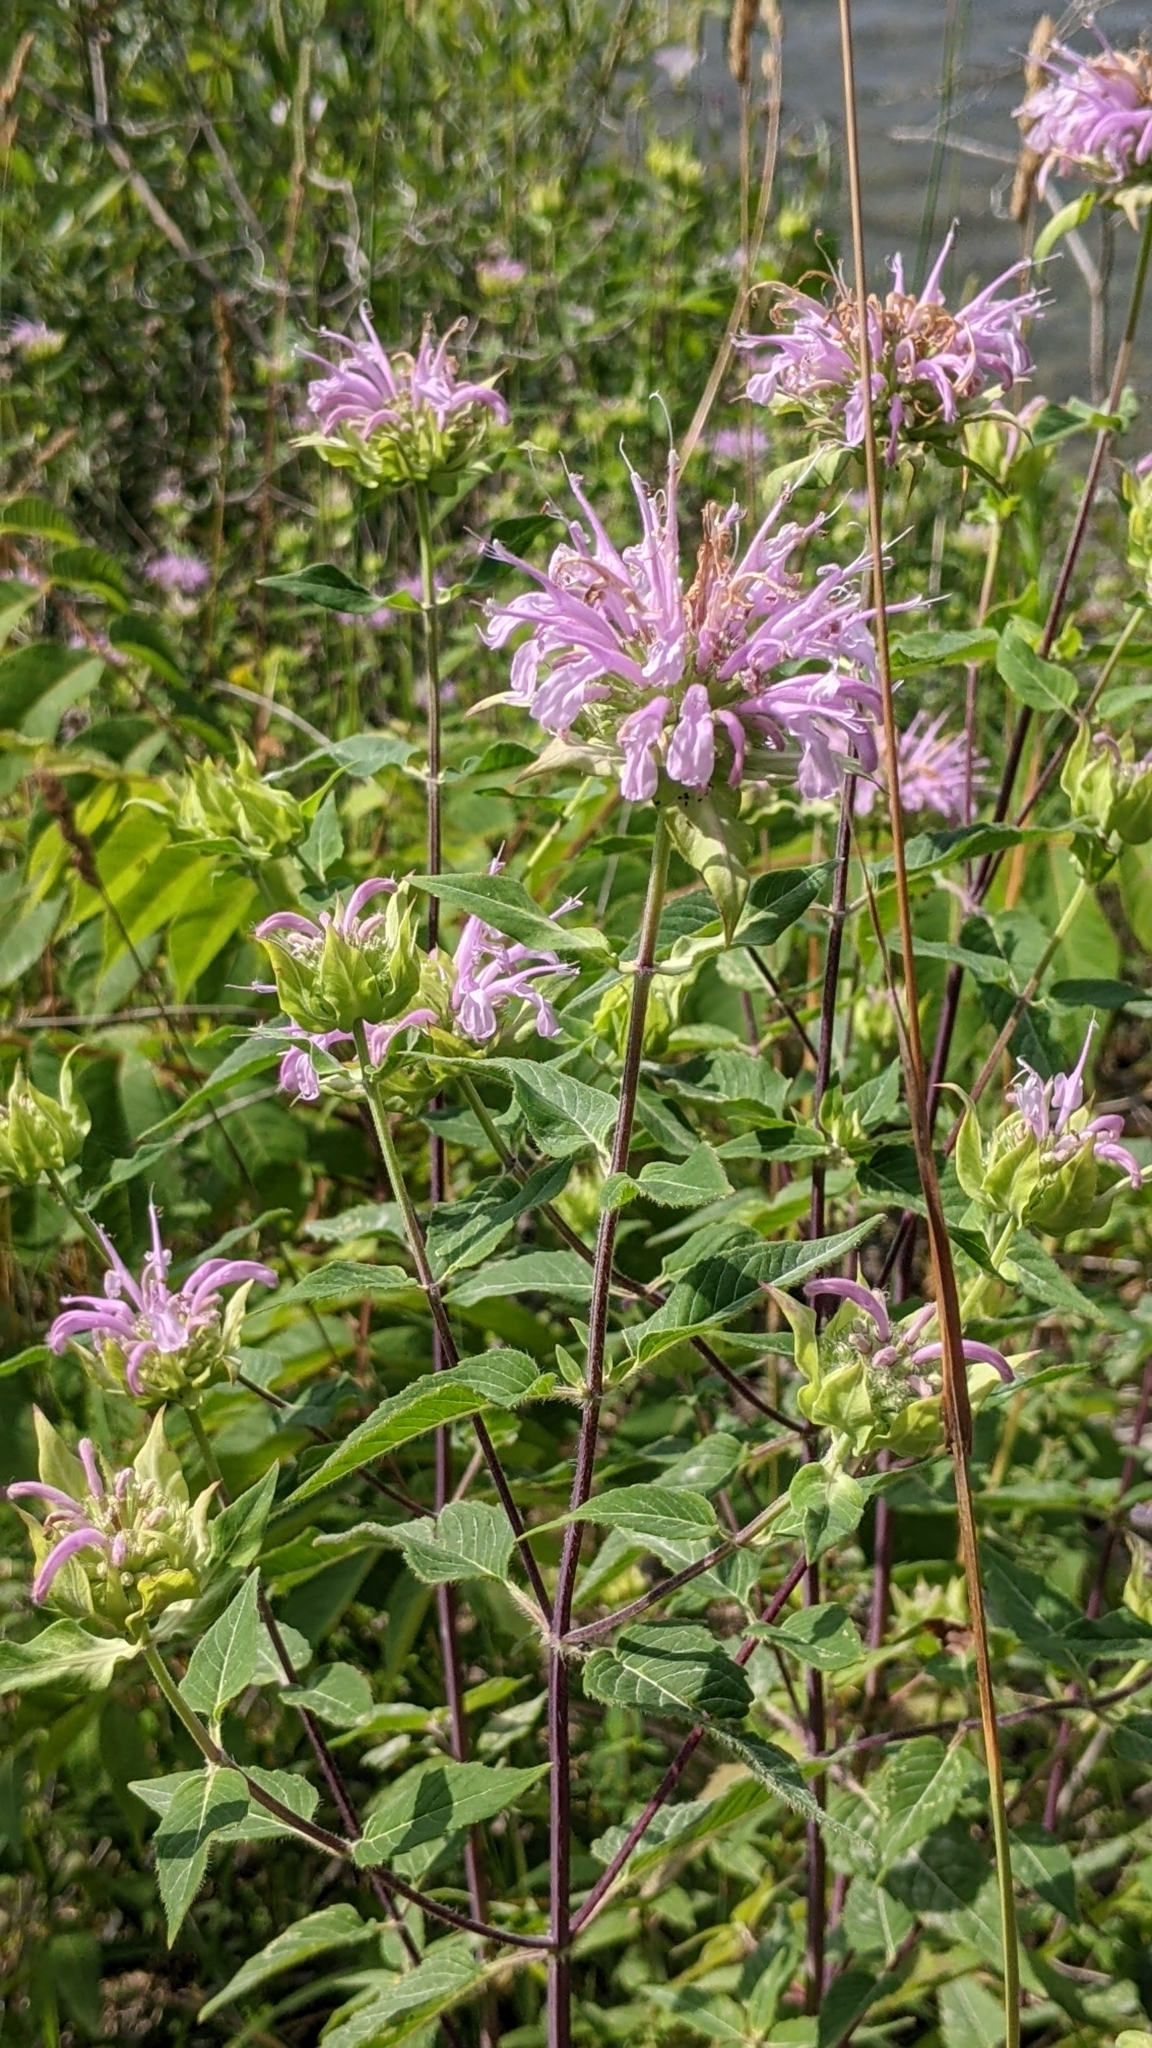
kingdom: Plantae
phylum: Tracheophyta
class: Magnoliopsida
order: Lamiales
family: Lamiaceae
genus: Monarda
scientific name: Monarda fistulosa
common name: Purple beebalm
